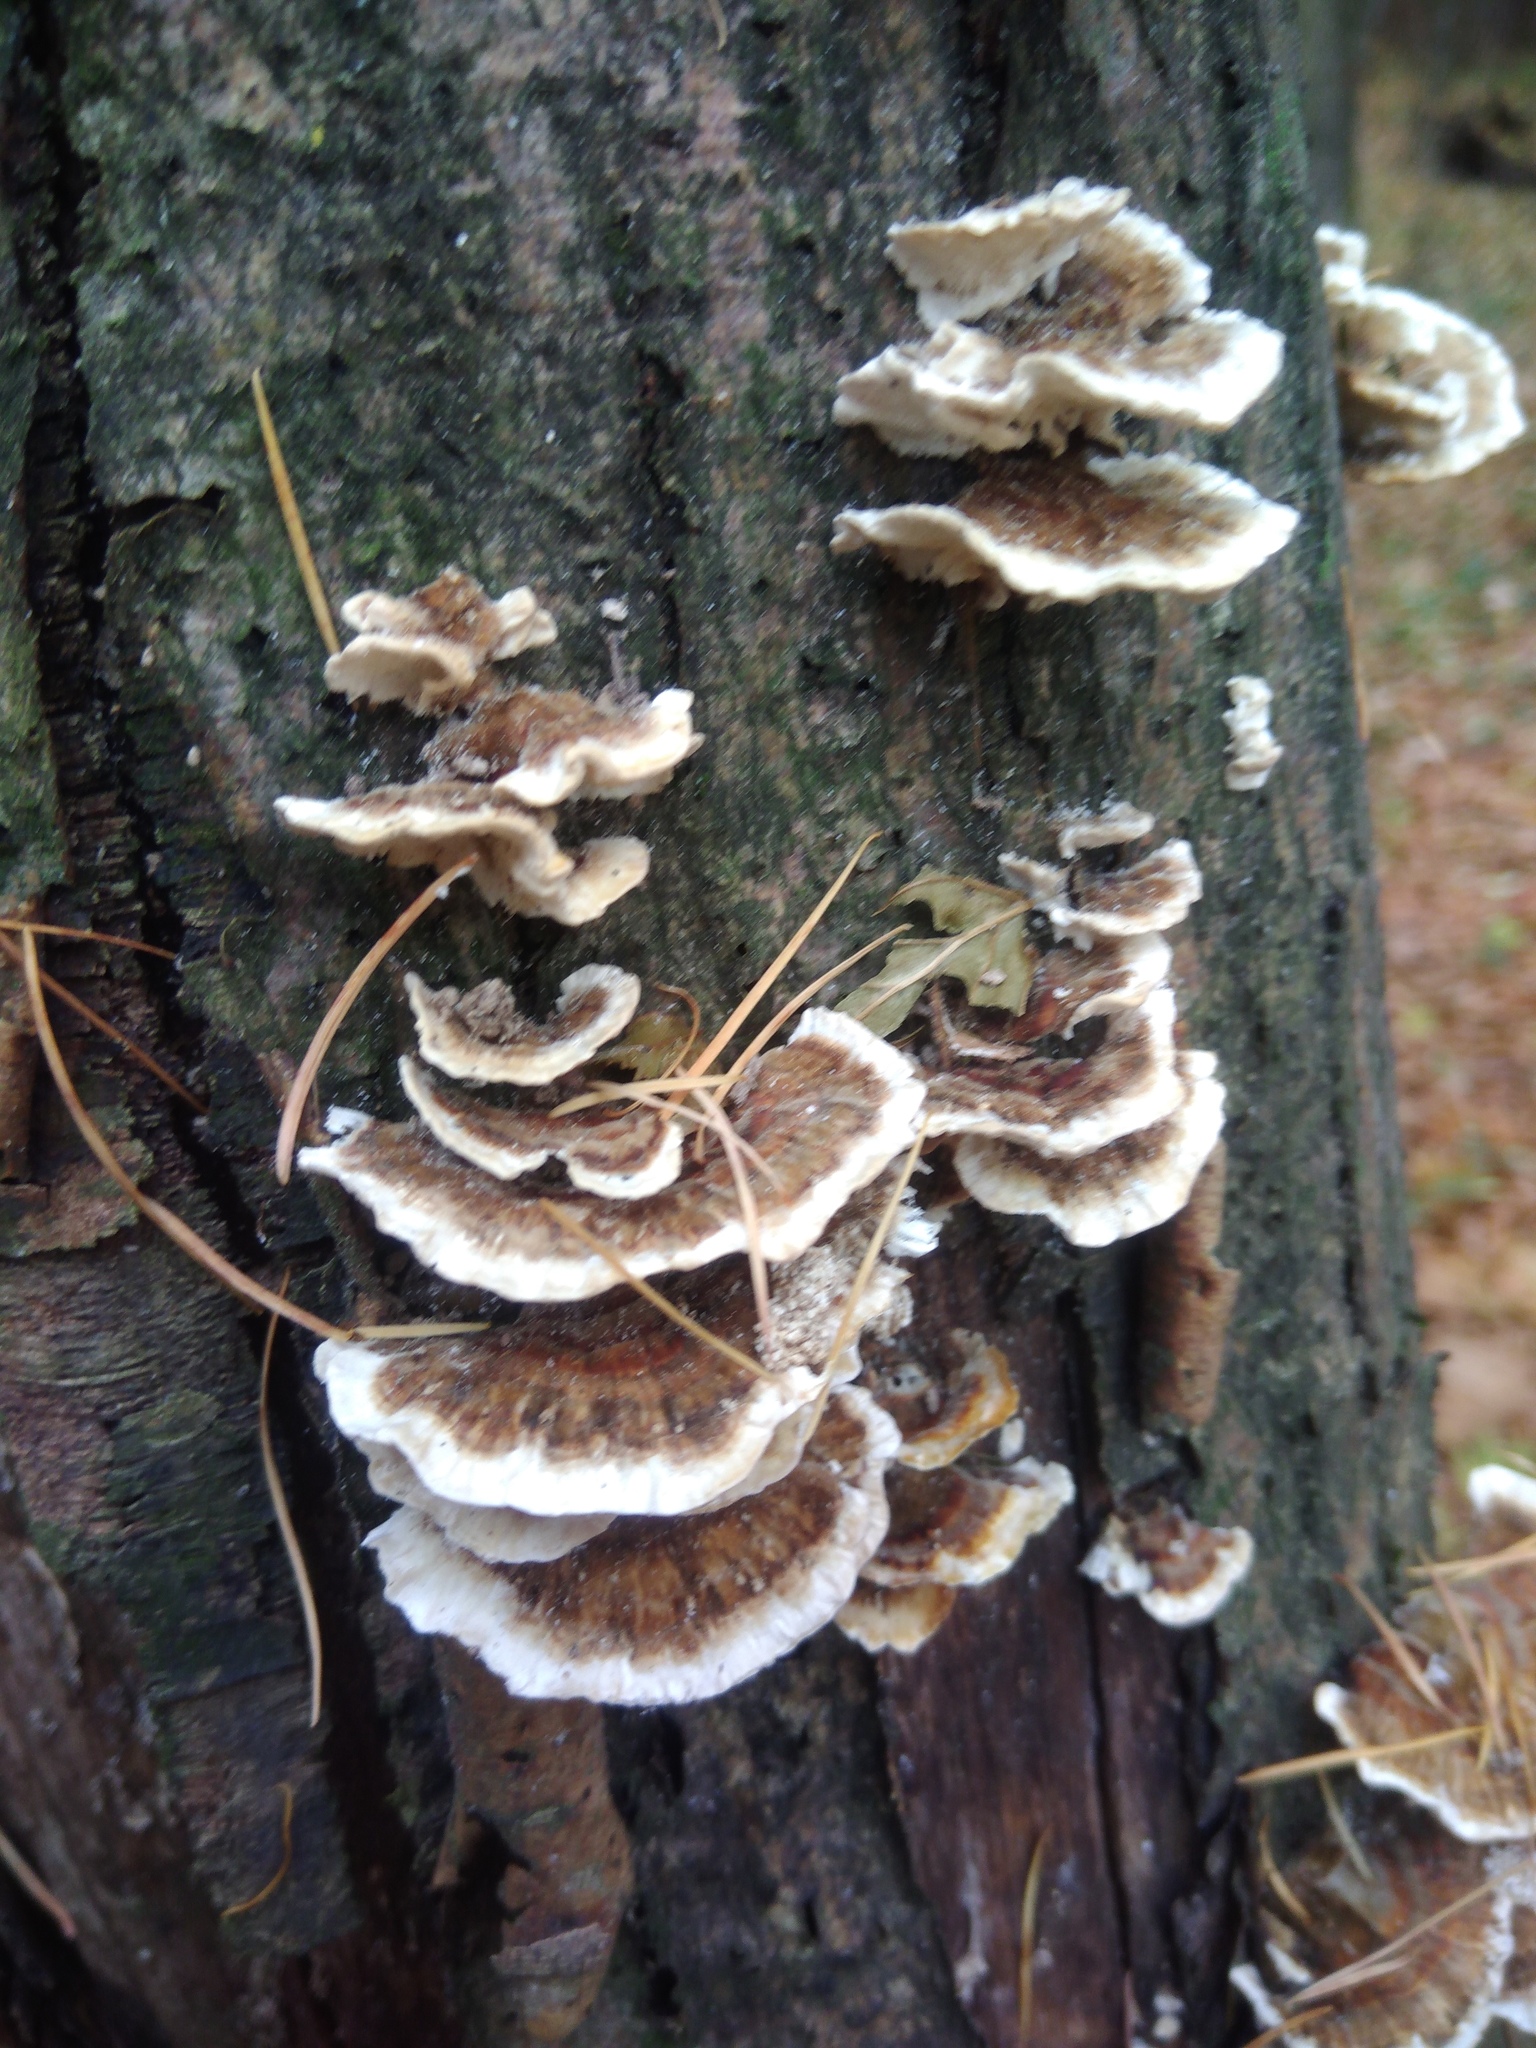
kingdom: Fungi
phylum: Basidiomycota
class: Agaricomycetes
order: Polyporales
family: Polyporaceae
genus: Trametes
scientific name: Trametes versicolor
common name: Turkeytail
